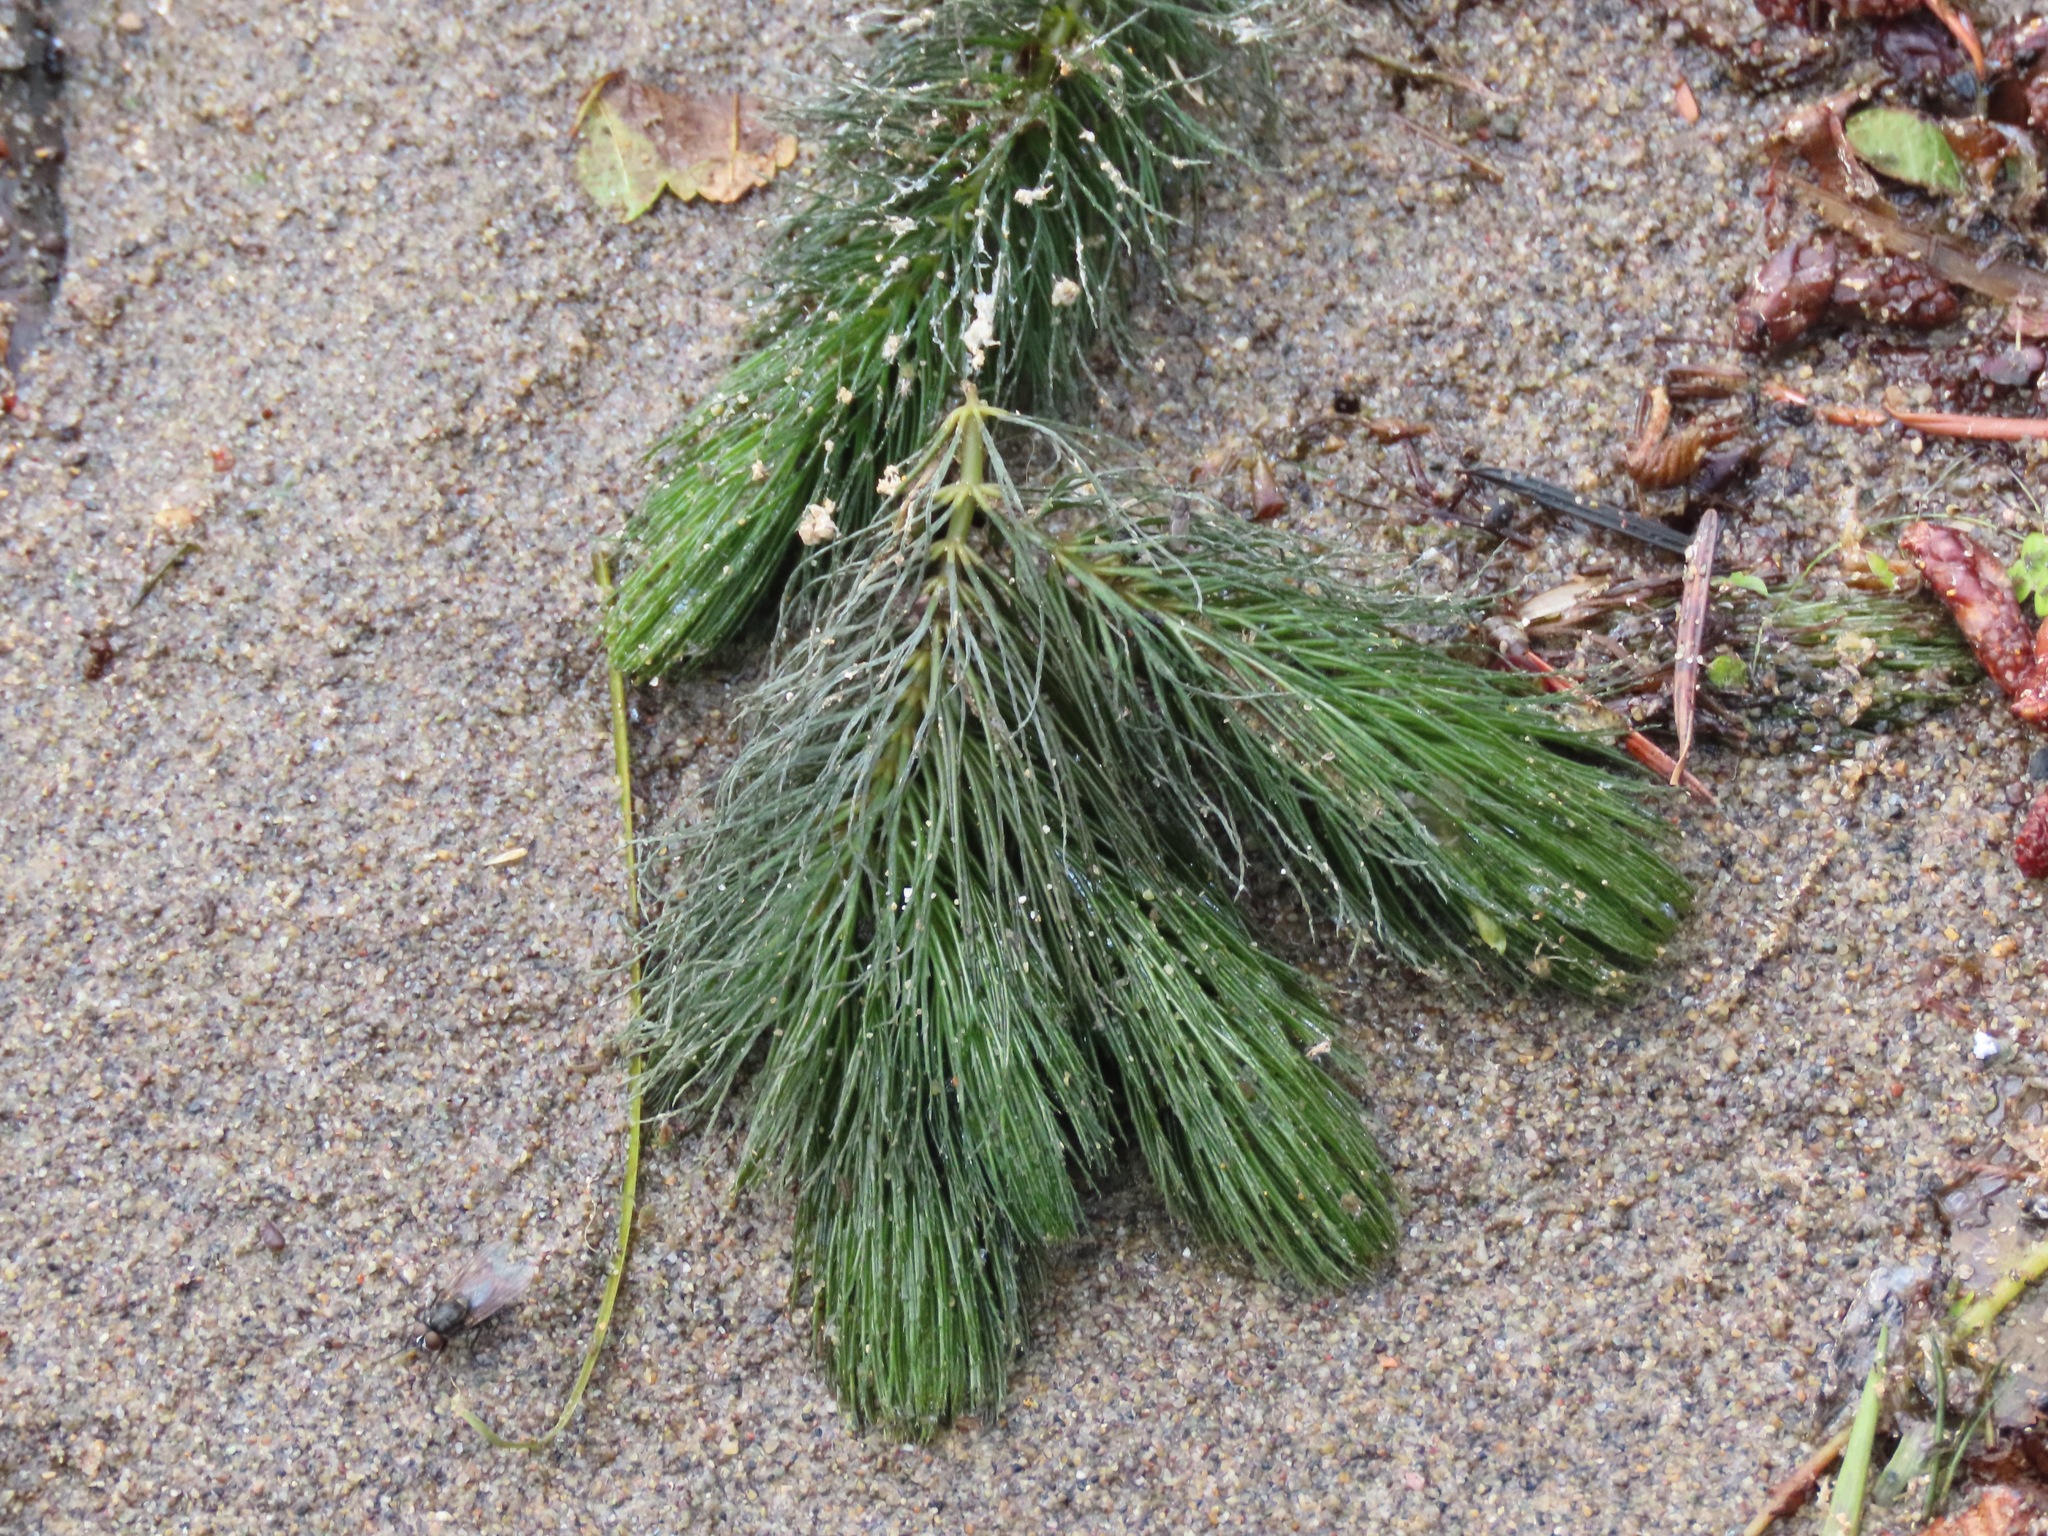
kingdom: Plantae
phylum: Tracheophyta
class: Magnoliopsida
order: Ceratophyllales
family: Ceratophyllaceae
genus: Ceratophyllum
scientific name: Ceratophyllum demersum
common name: Rigid hornwort
